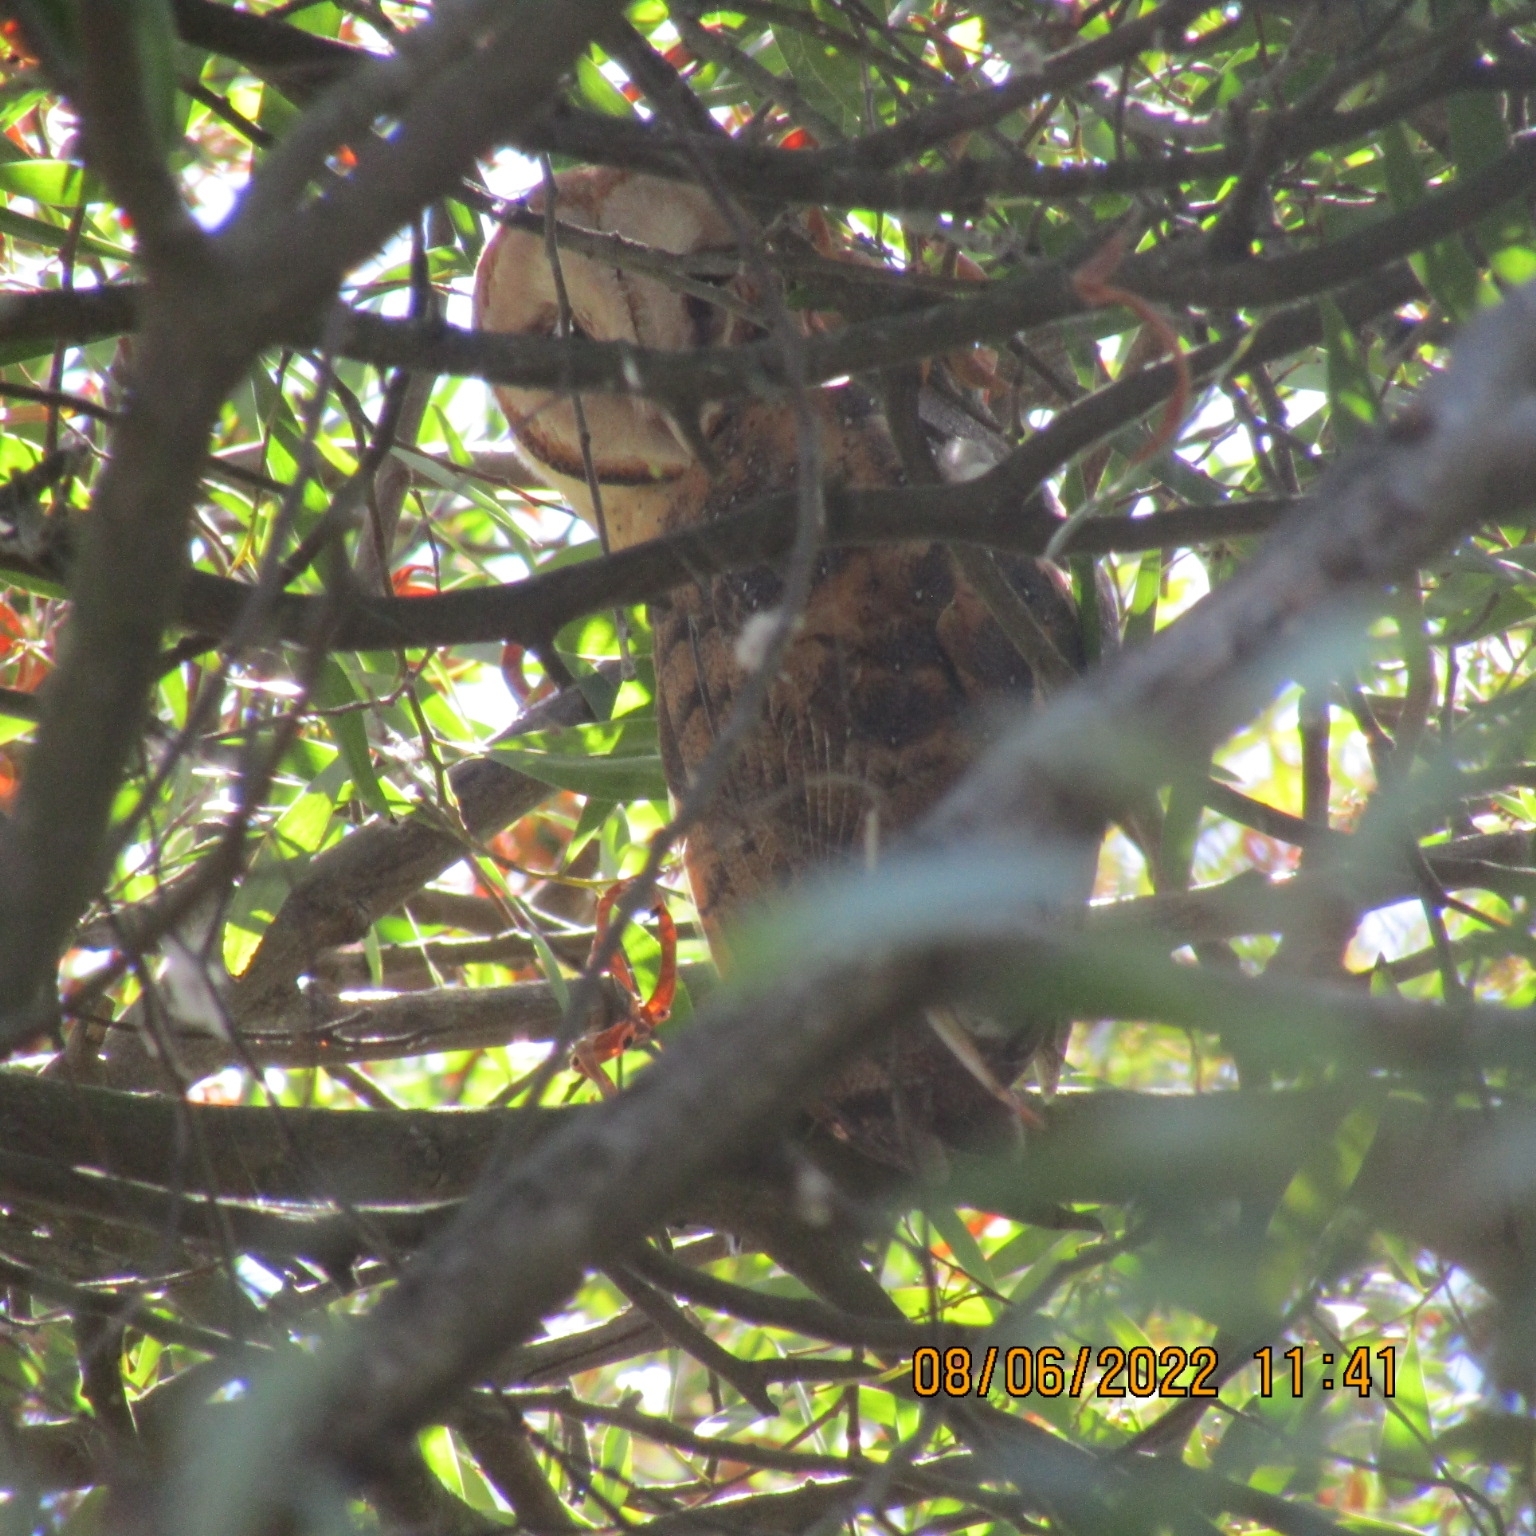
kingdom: Animalia
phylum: Chordata
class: Aves
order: Strigiformes
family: Tytonidae
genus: Tyto
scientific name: Tyto alba
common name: Barn owl
